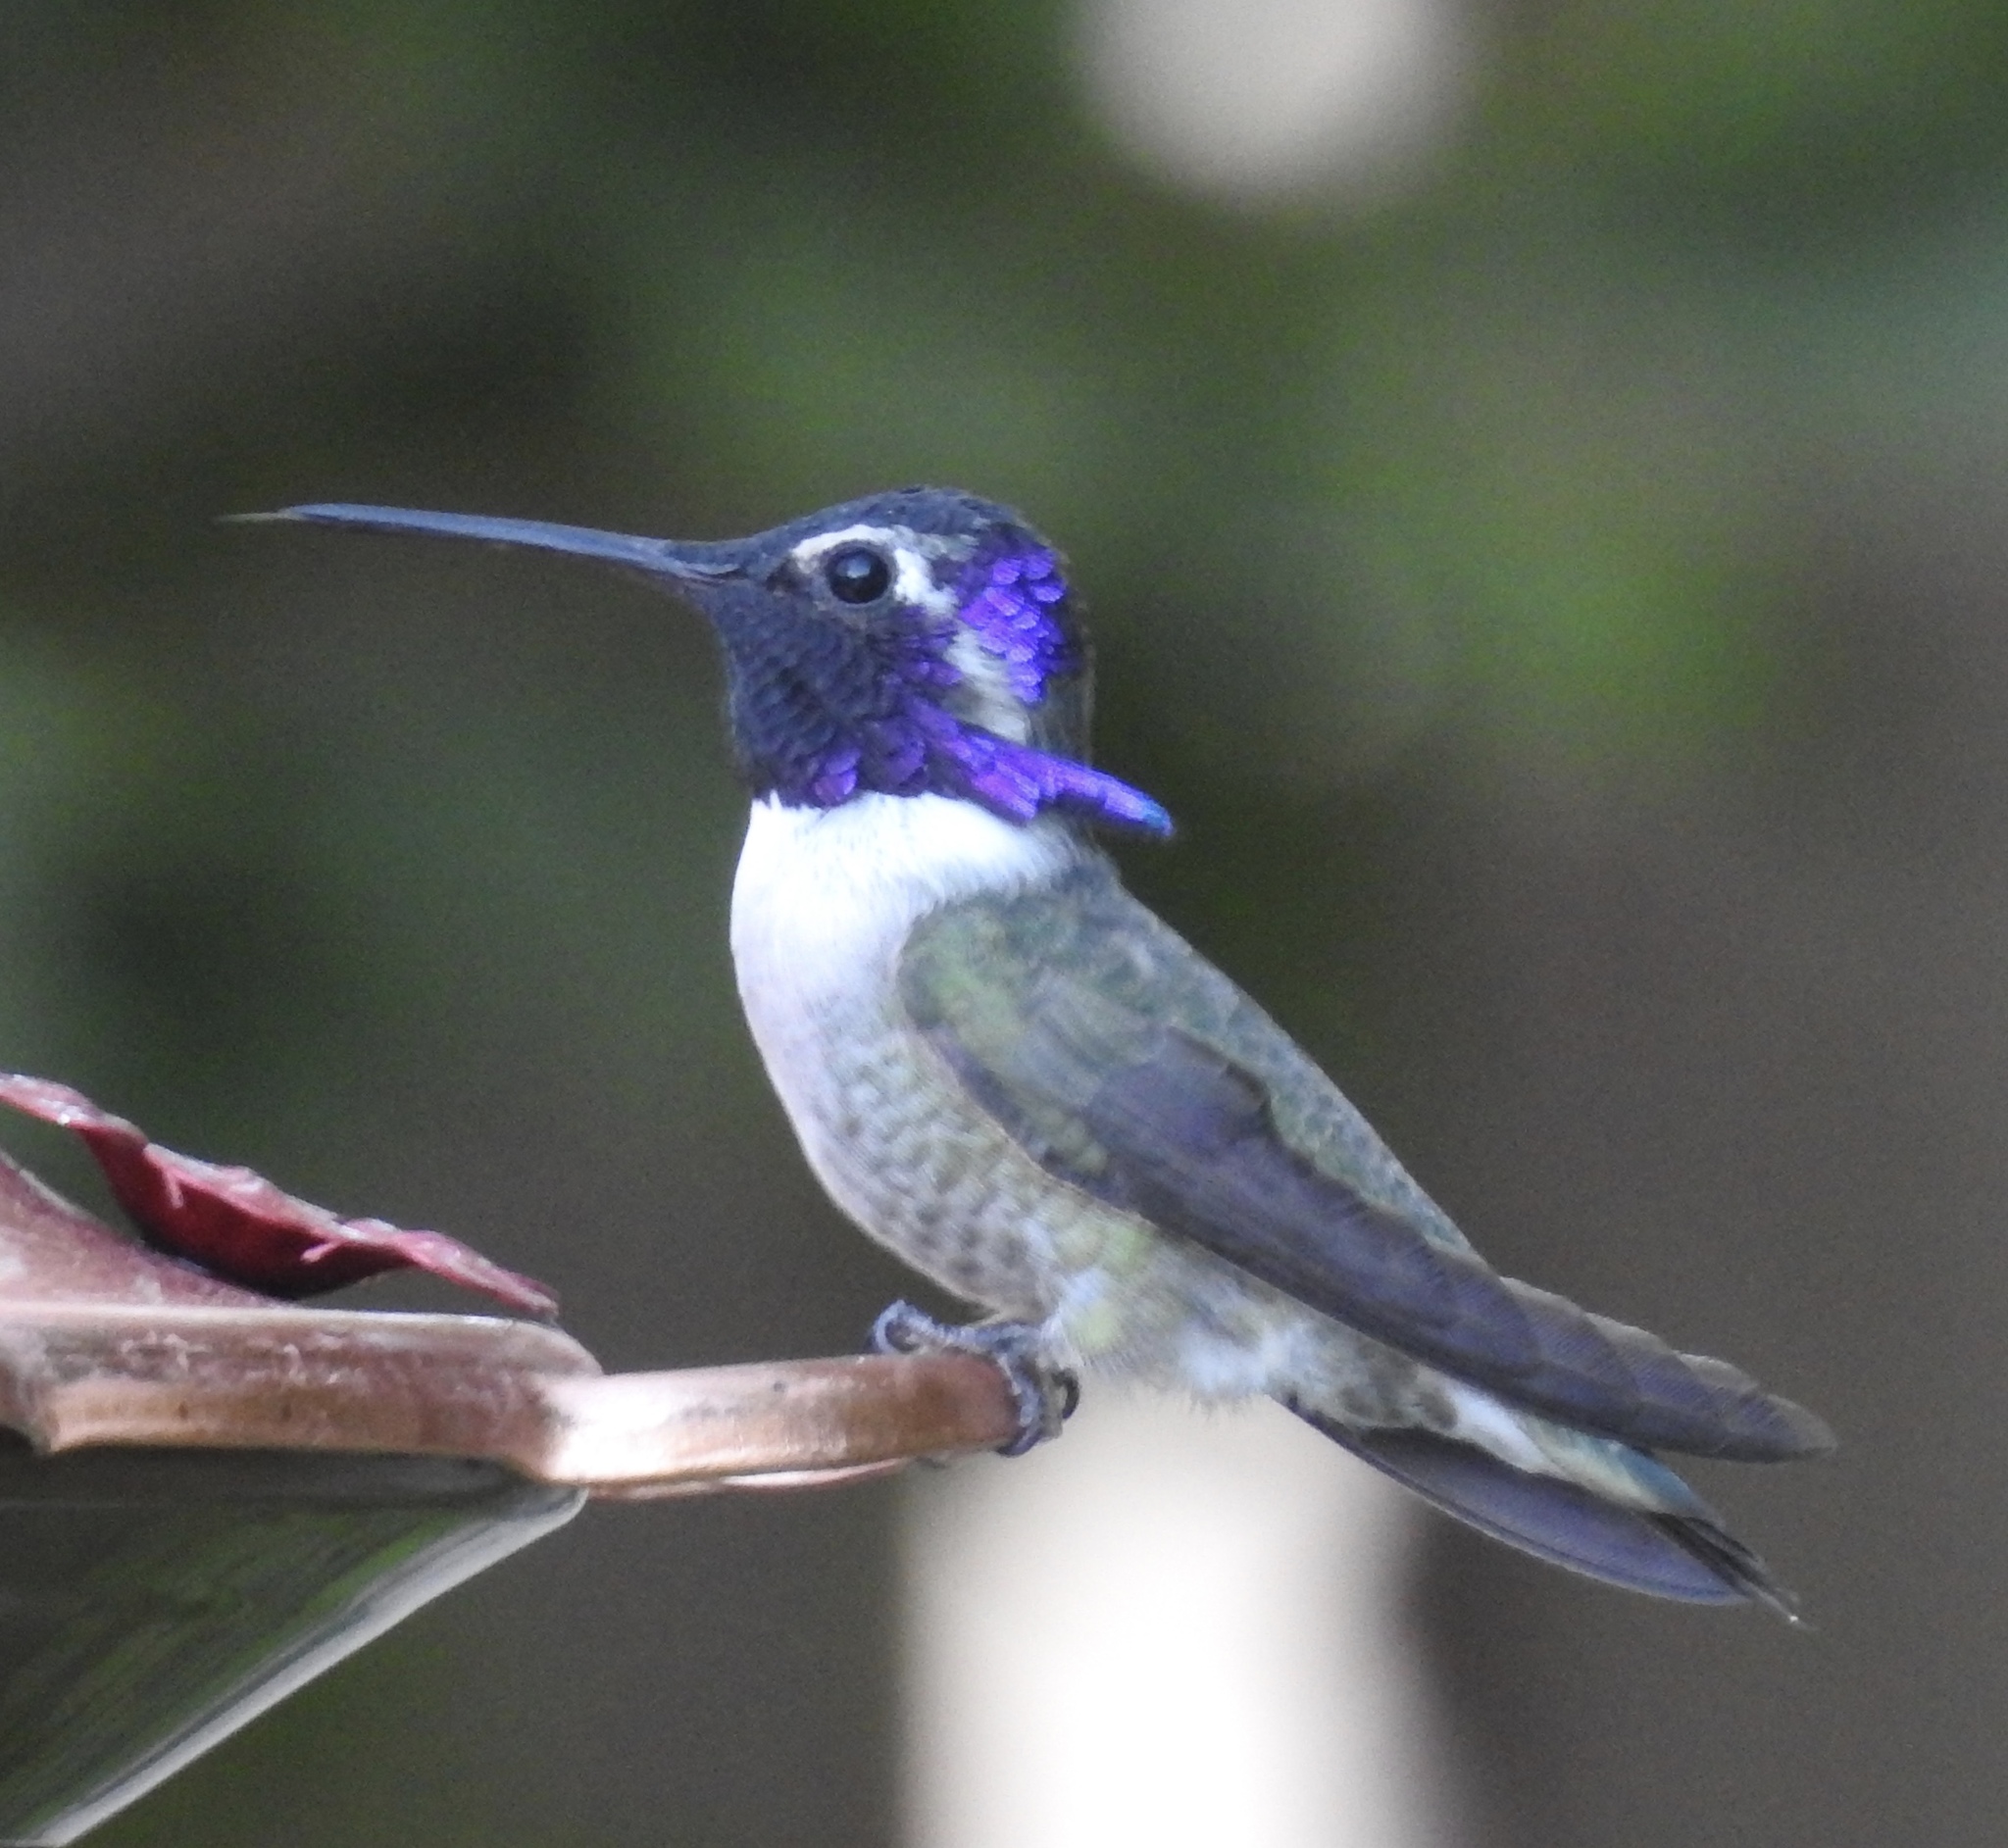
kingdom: Animalia
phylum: Chordata
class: Aves
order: Apodiformes
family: Trochilidae
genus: Calypte
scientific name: Calypte costae
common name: Costa's hummingbird
